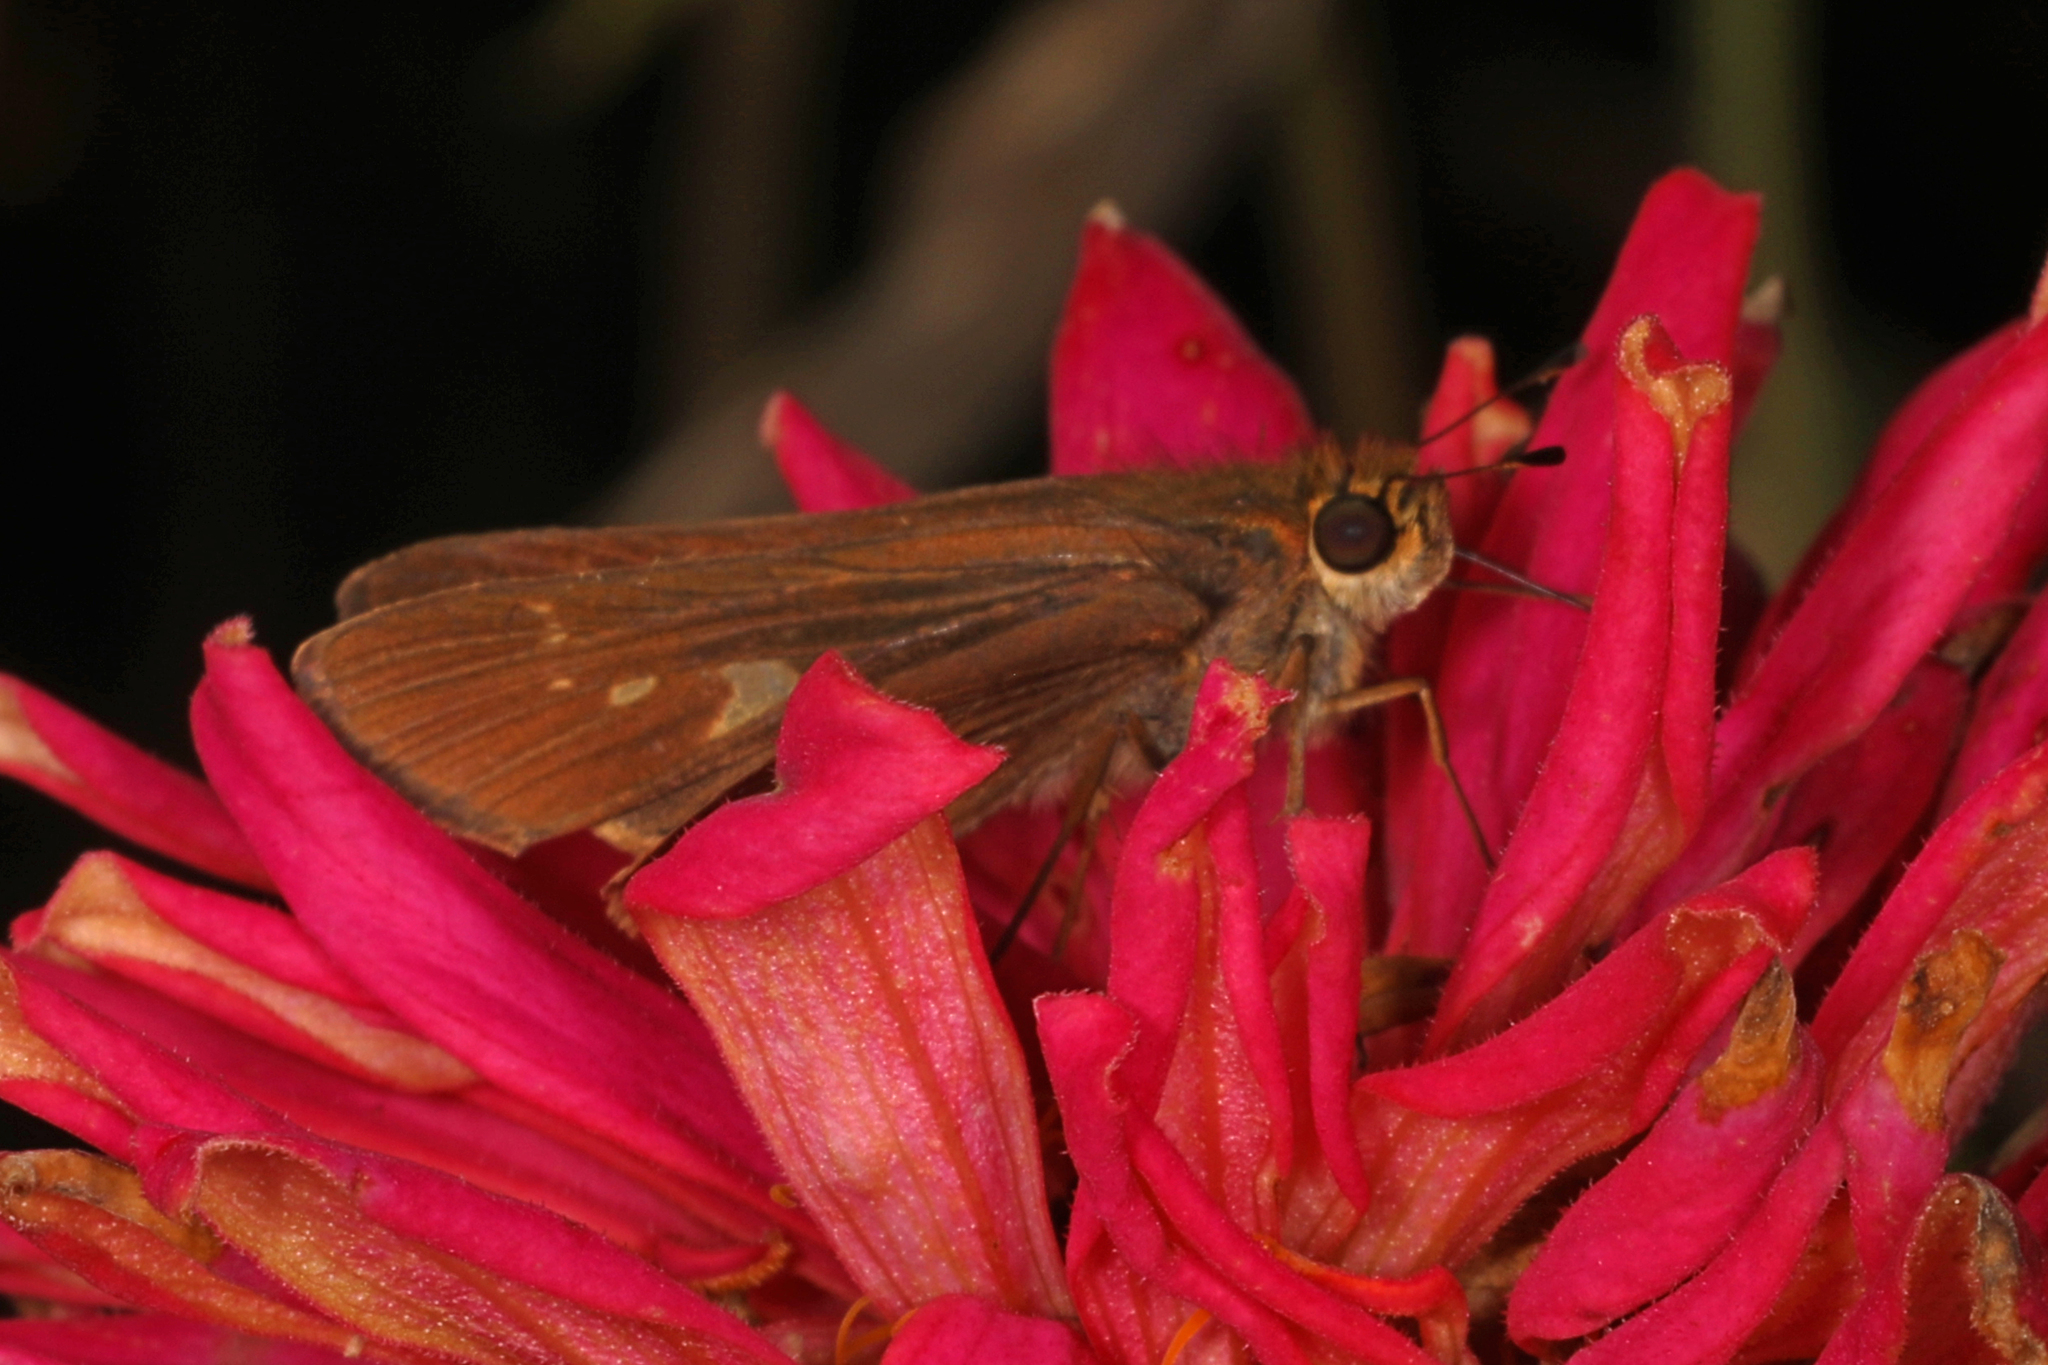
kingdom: Animalia
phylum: Arthropoda
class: Insecta
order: Lepidoptera
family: Hesperiidae
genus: Panoquina
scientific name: Panoquina ocola
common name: Ocola skipper
